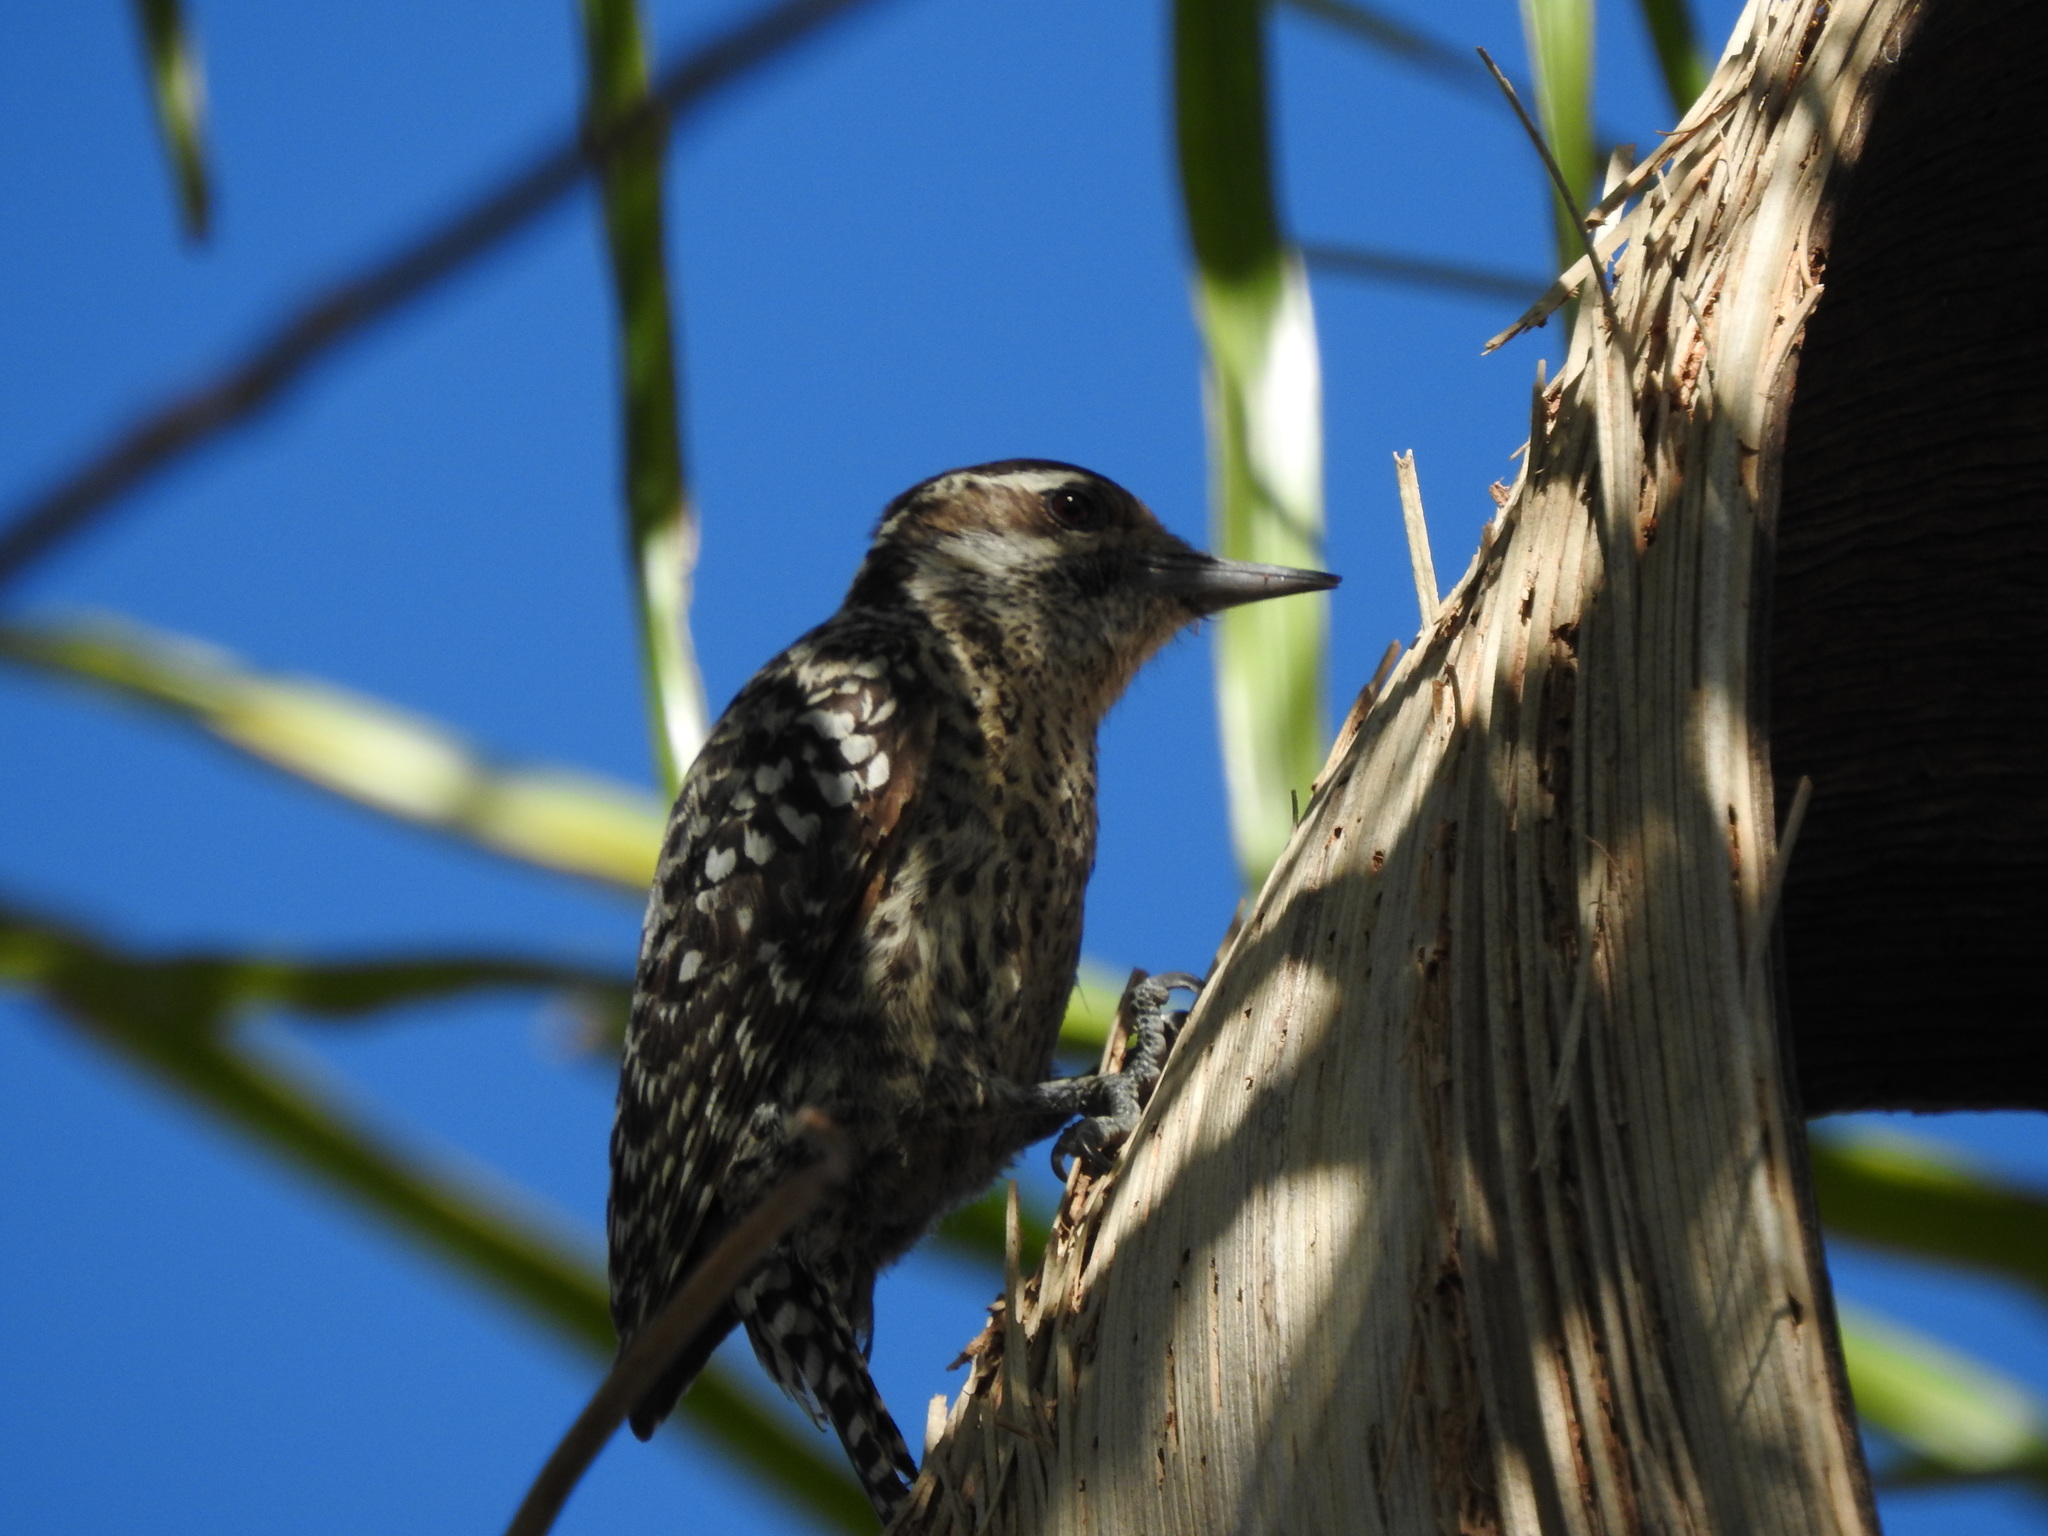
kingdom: Animalia
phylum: Chordata
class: Aves
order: Piciformes
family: Picidae
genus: Veniliornis
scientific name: Veniliornis mixtus
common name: Checkered woodpecker
